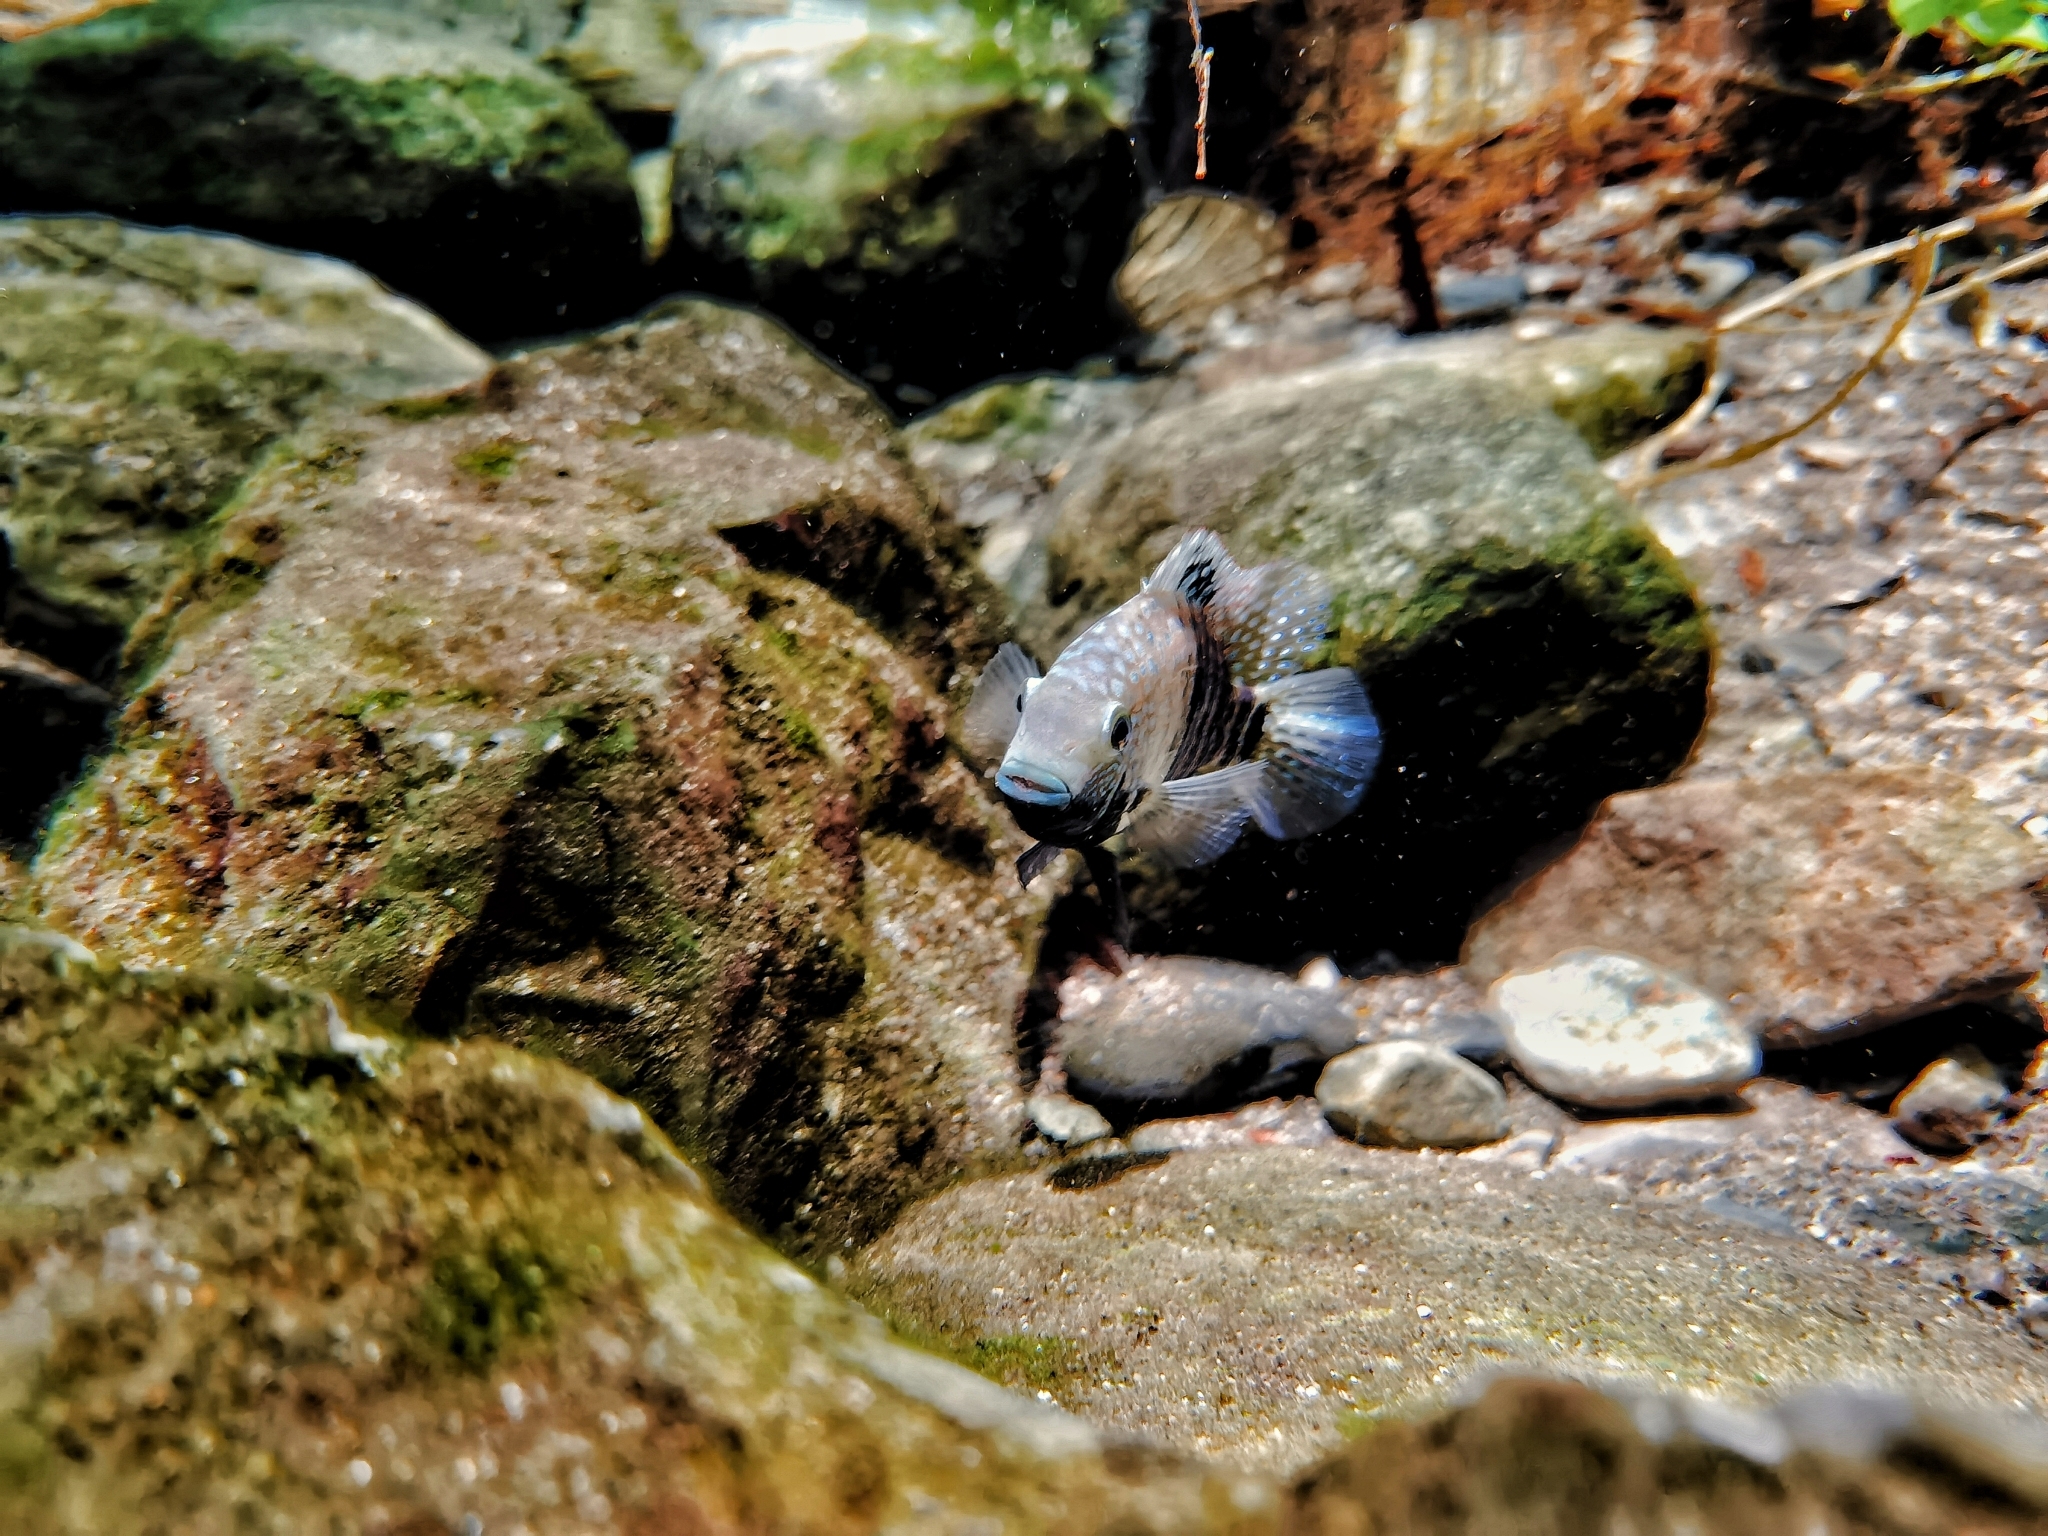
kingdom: Animalia
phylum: Chordata
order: Perciformes
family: Cichlidae
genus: Herichthys
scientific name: Herichthys carpintis
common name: Lowland cichlid
